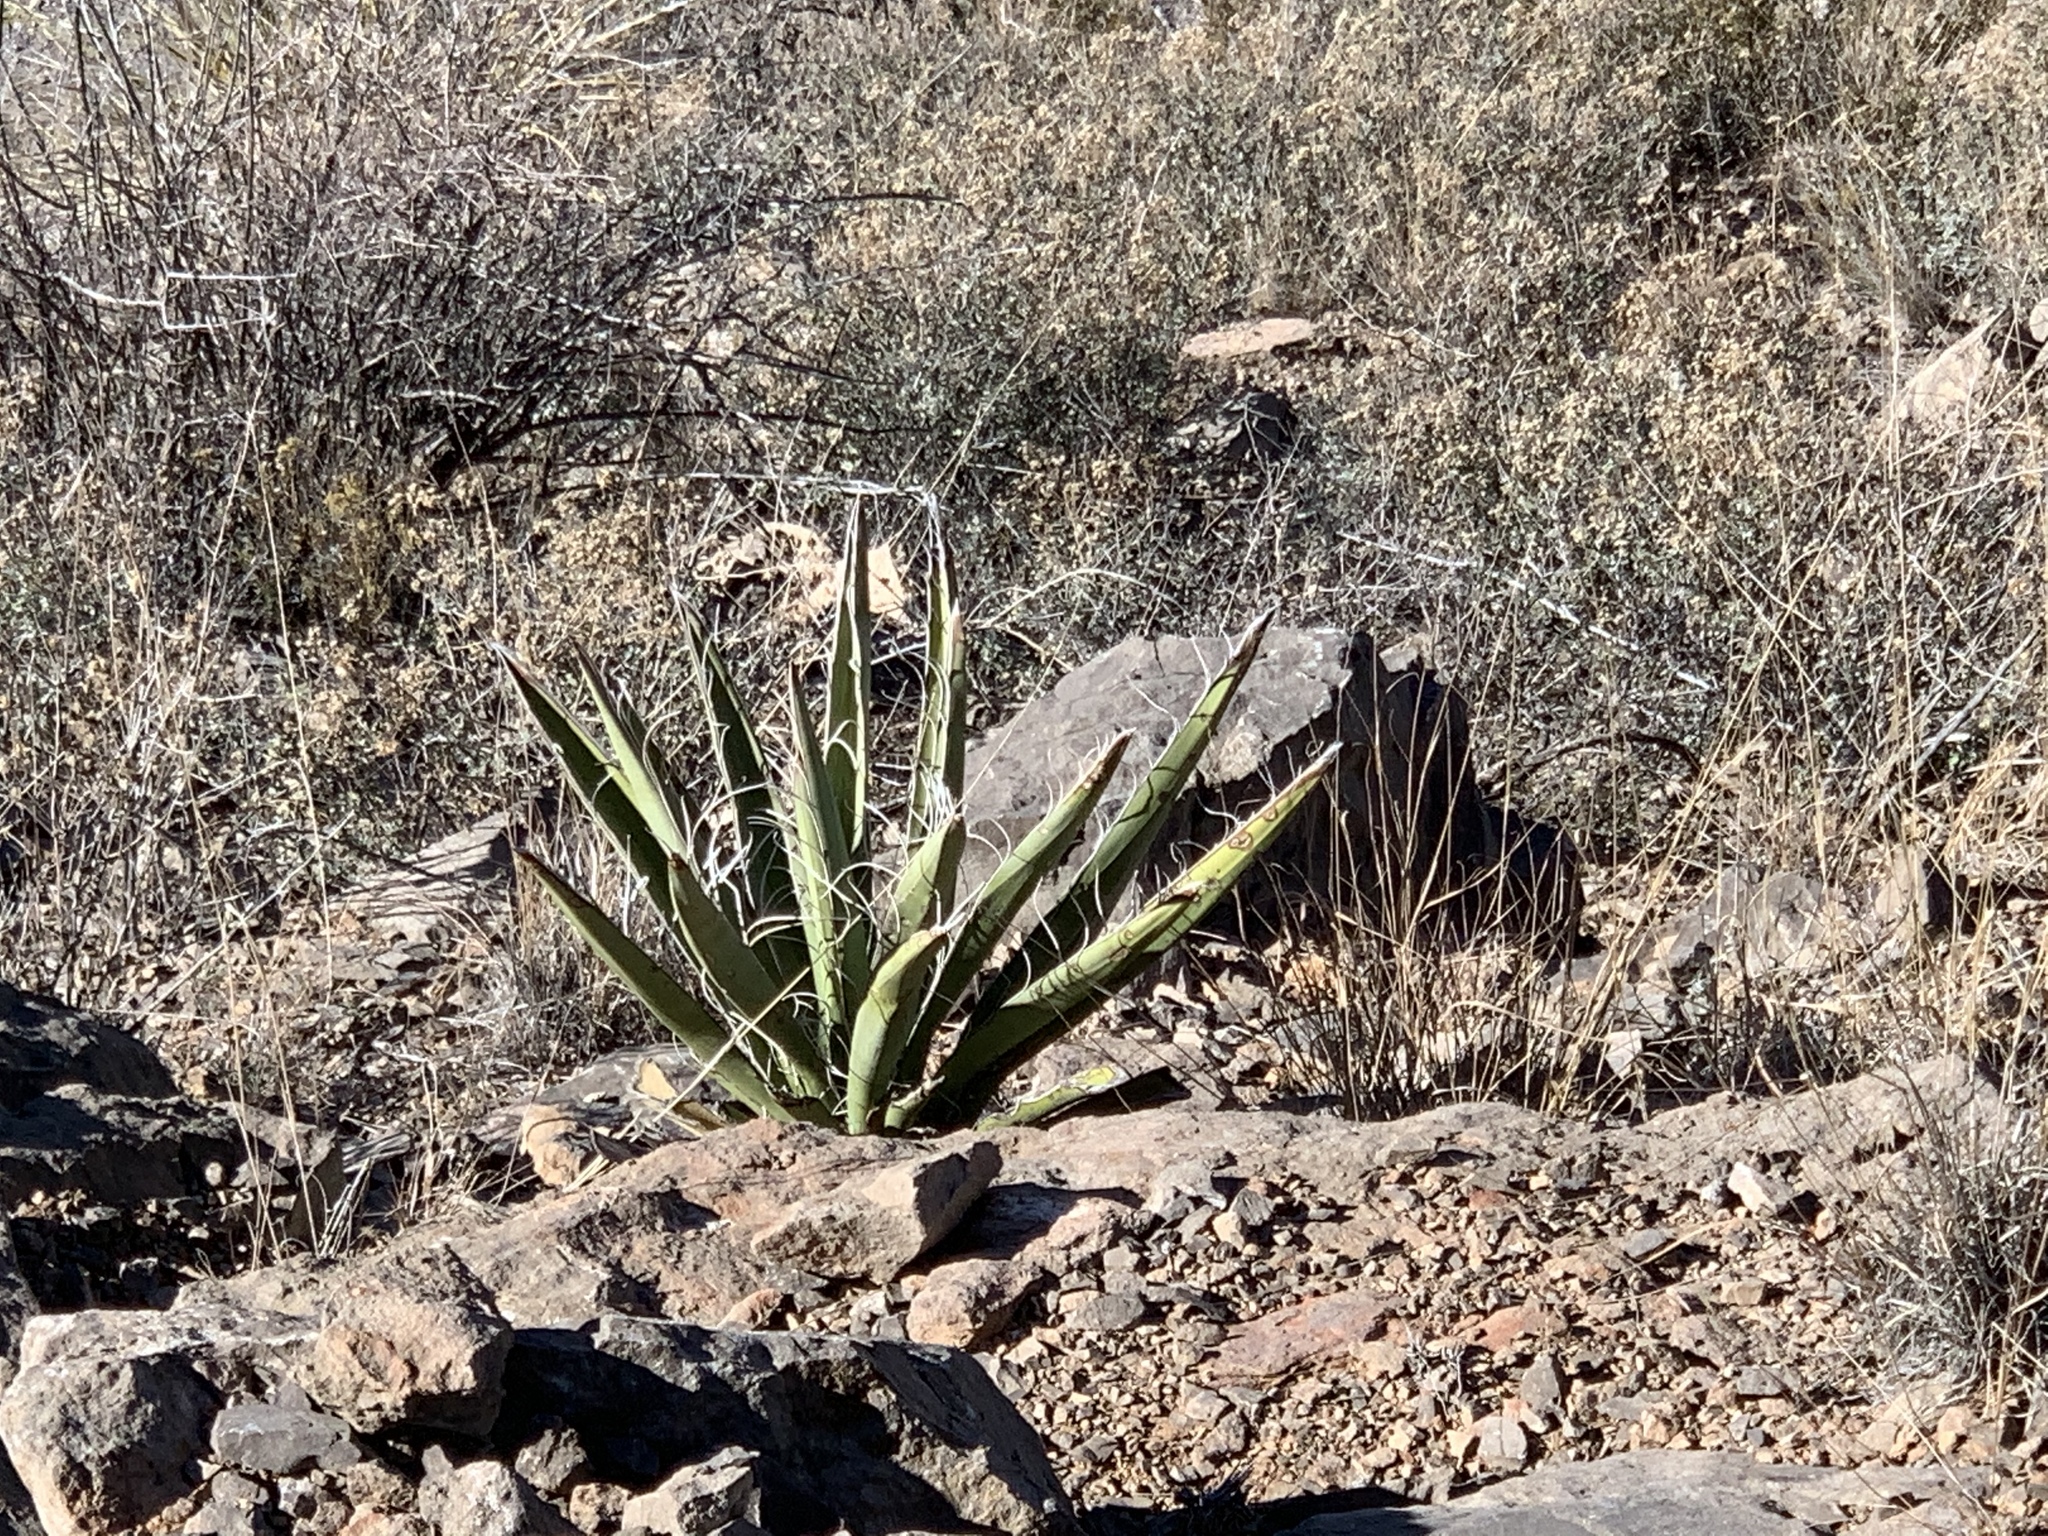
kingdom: Plantae
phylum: Tracheophyta
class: Liliopsida
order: Asparagales
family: Asparagaceae
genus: Yucca
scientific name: Yucca baccata
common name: Banana yucca
